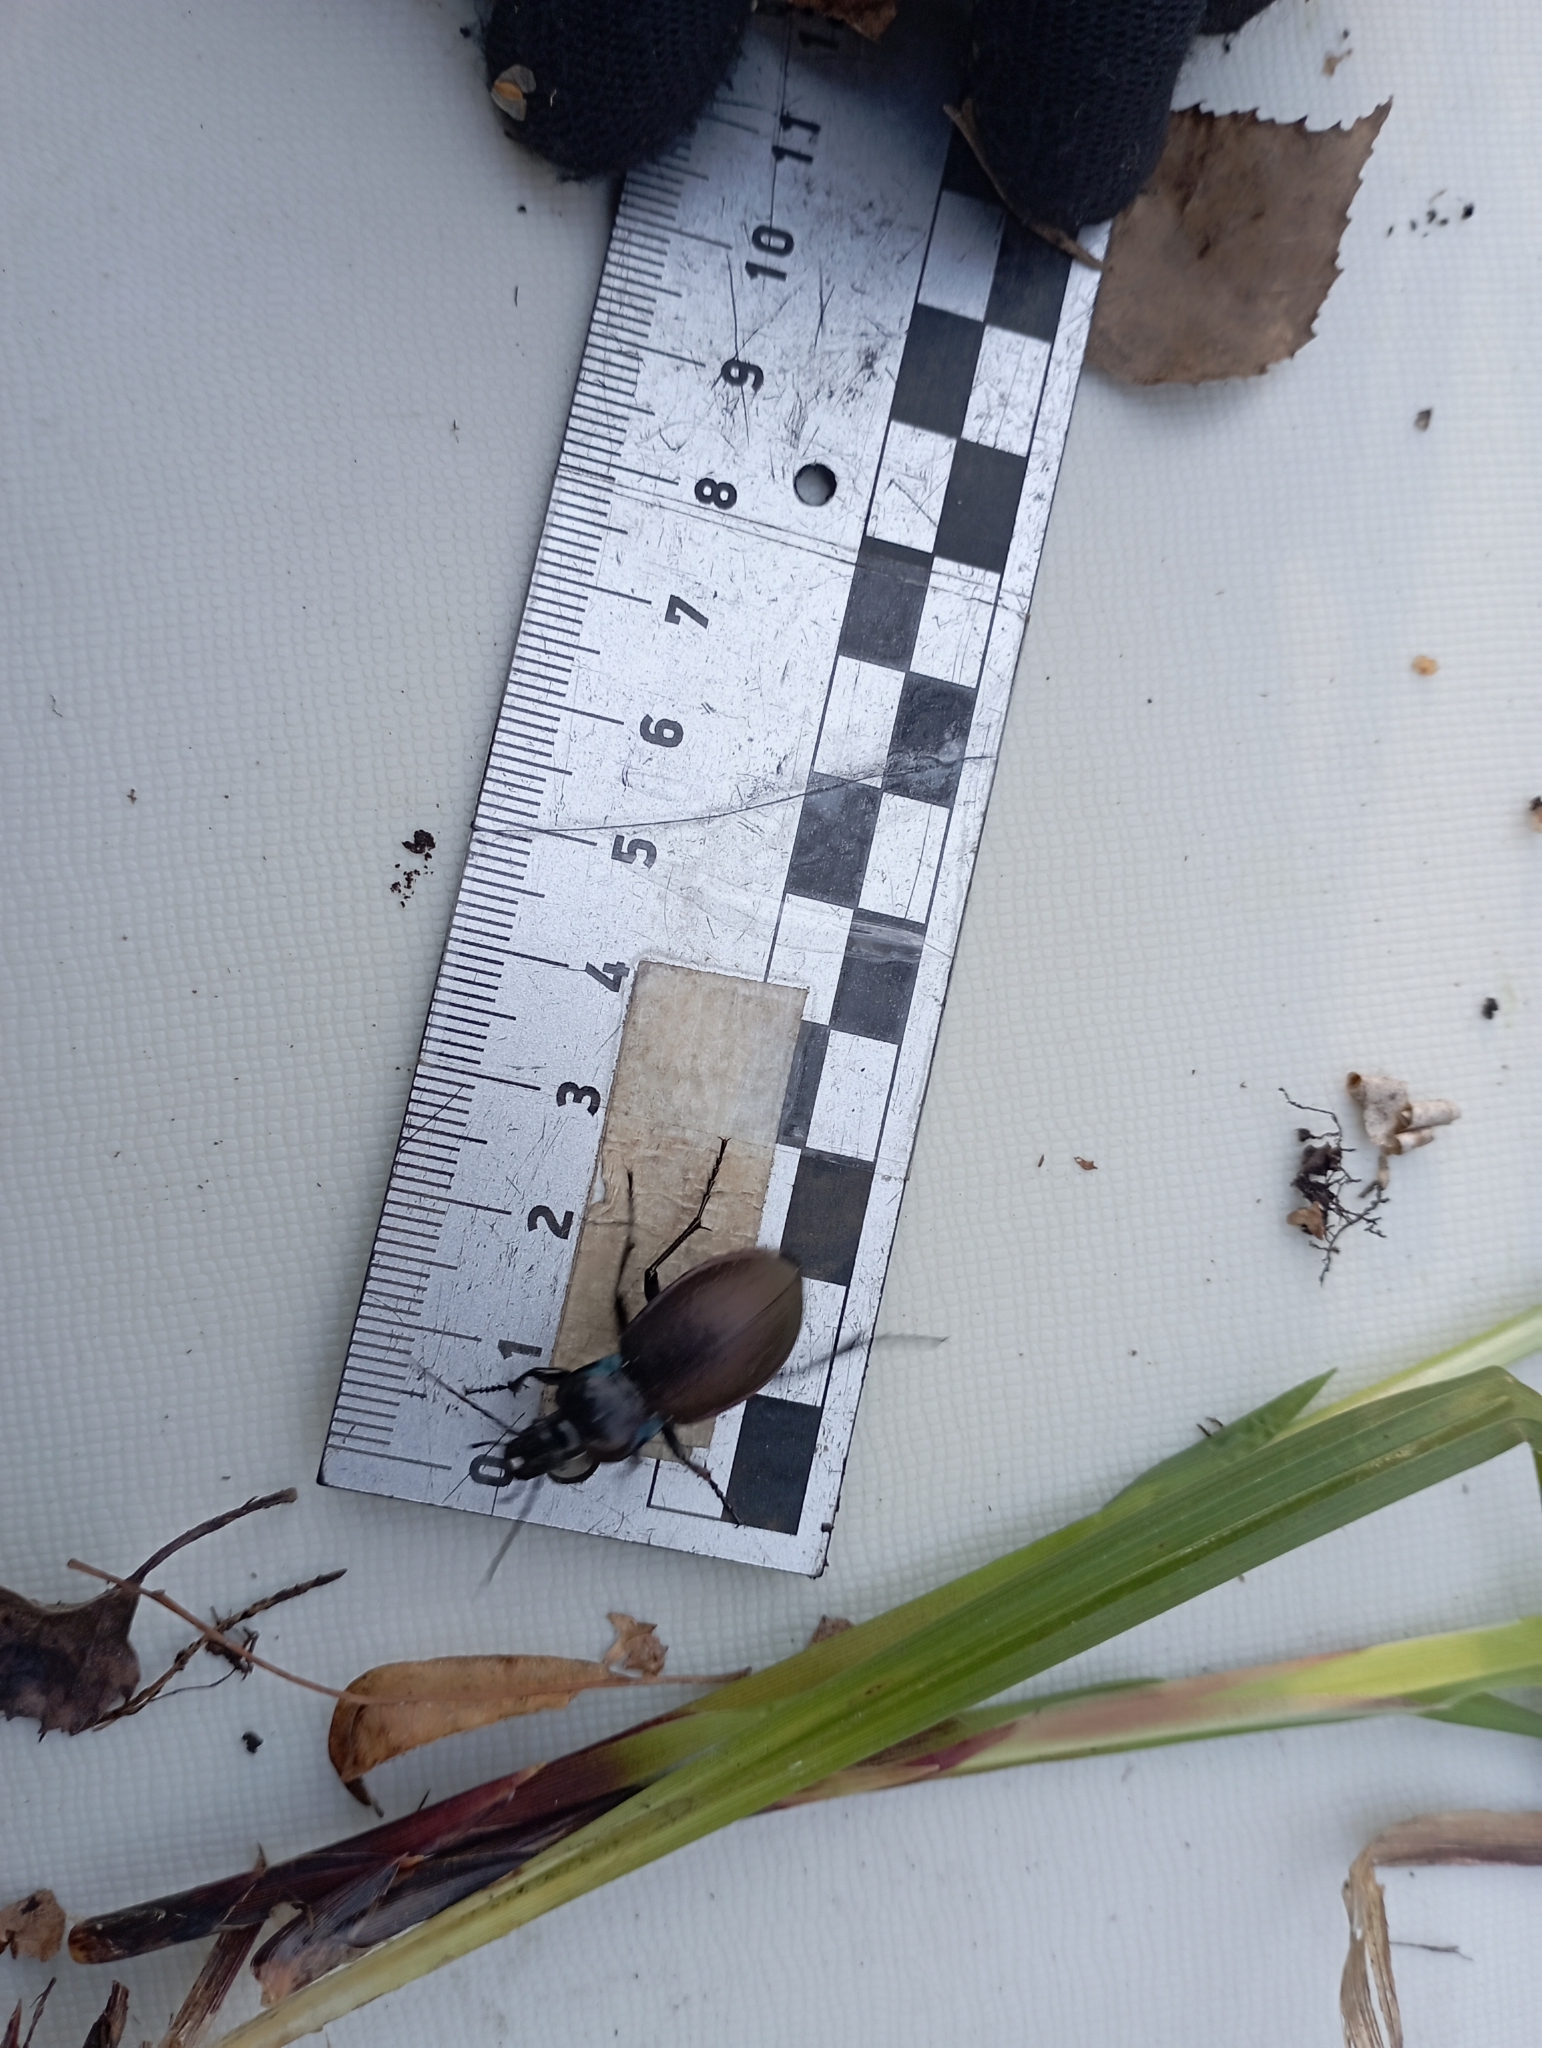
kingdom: Animalia
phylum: Arthropoda
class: Insecta
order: Coleoptera
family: Carabidae
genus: Carabus
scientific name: Carabus nemoralis
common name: European ground beetle
